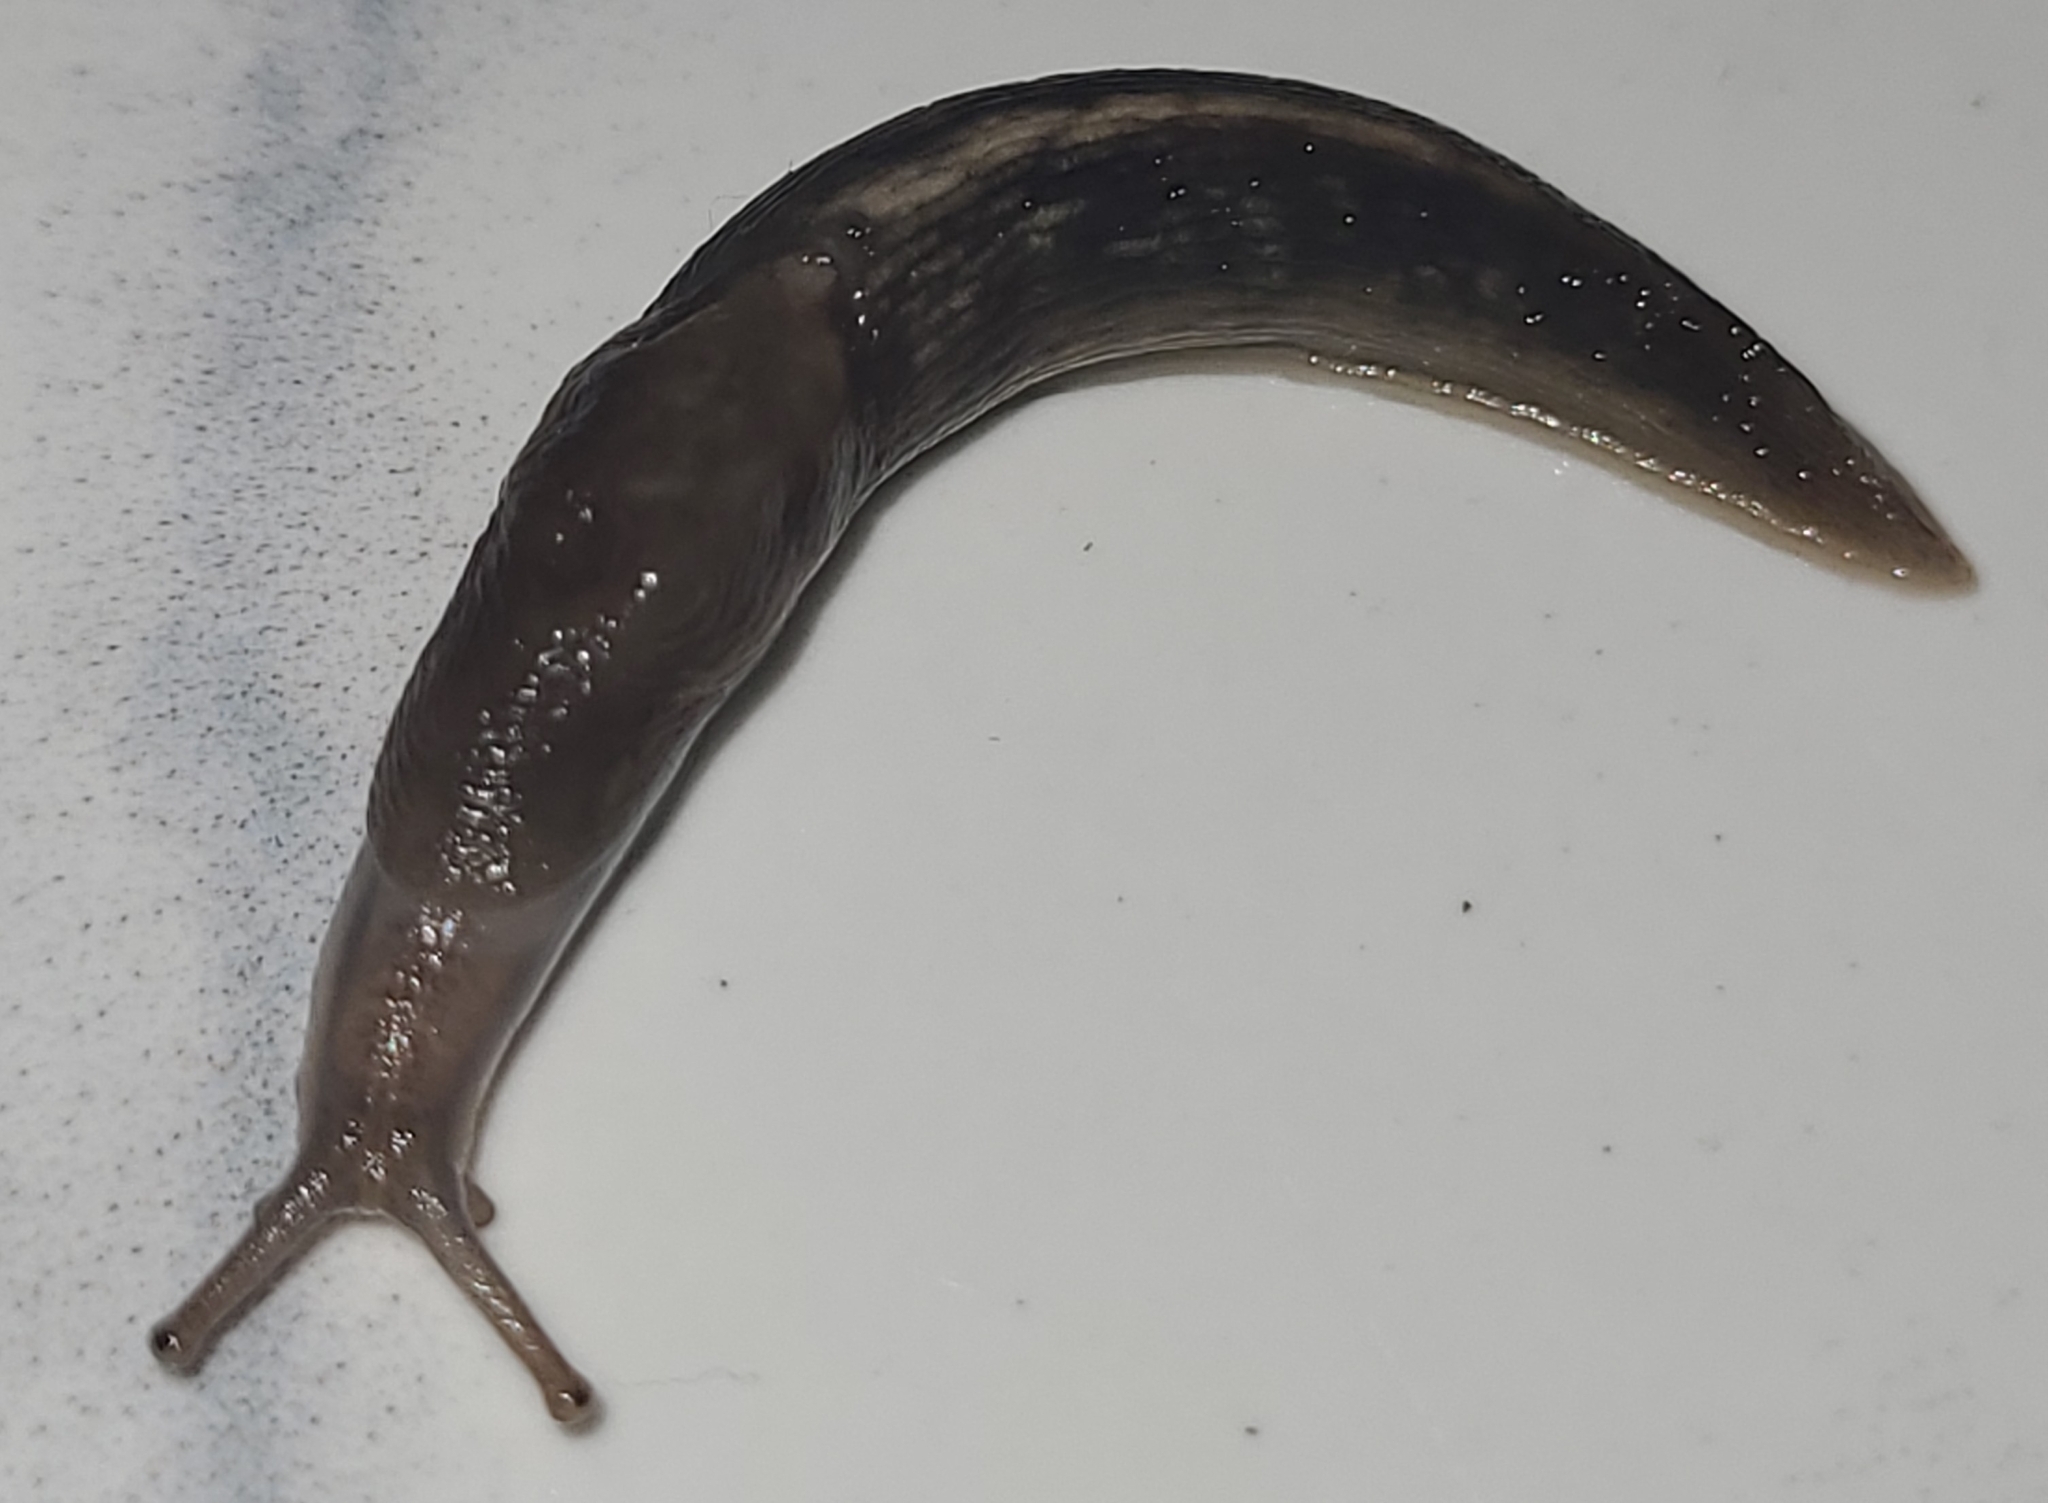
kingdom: Animalia
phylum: Mollusca
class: Gastropoda
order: Stylommatophora
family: Limacidae
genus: Lehmannia
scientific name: Lehmannia marginata
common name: Tree slug
